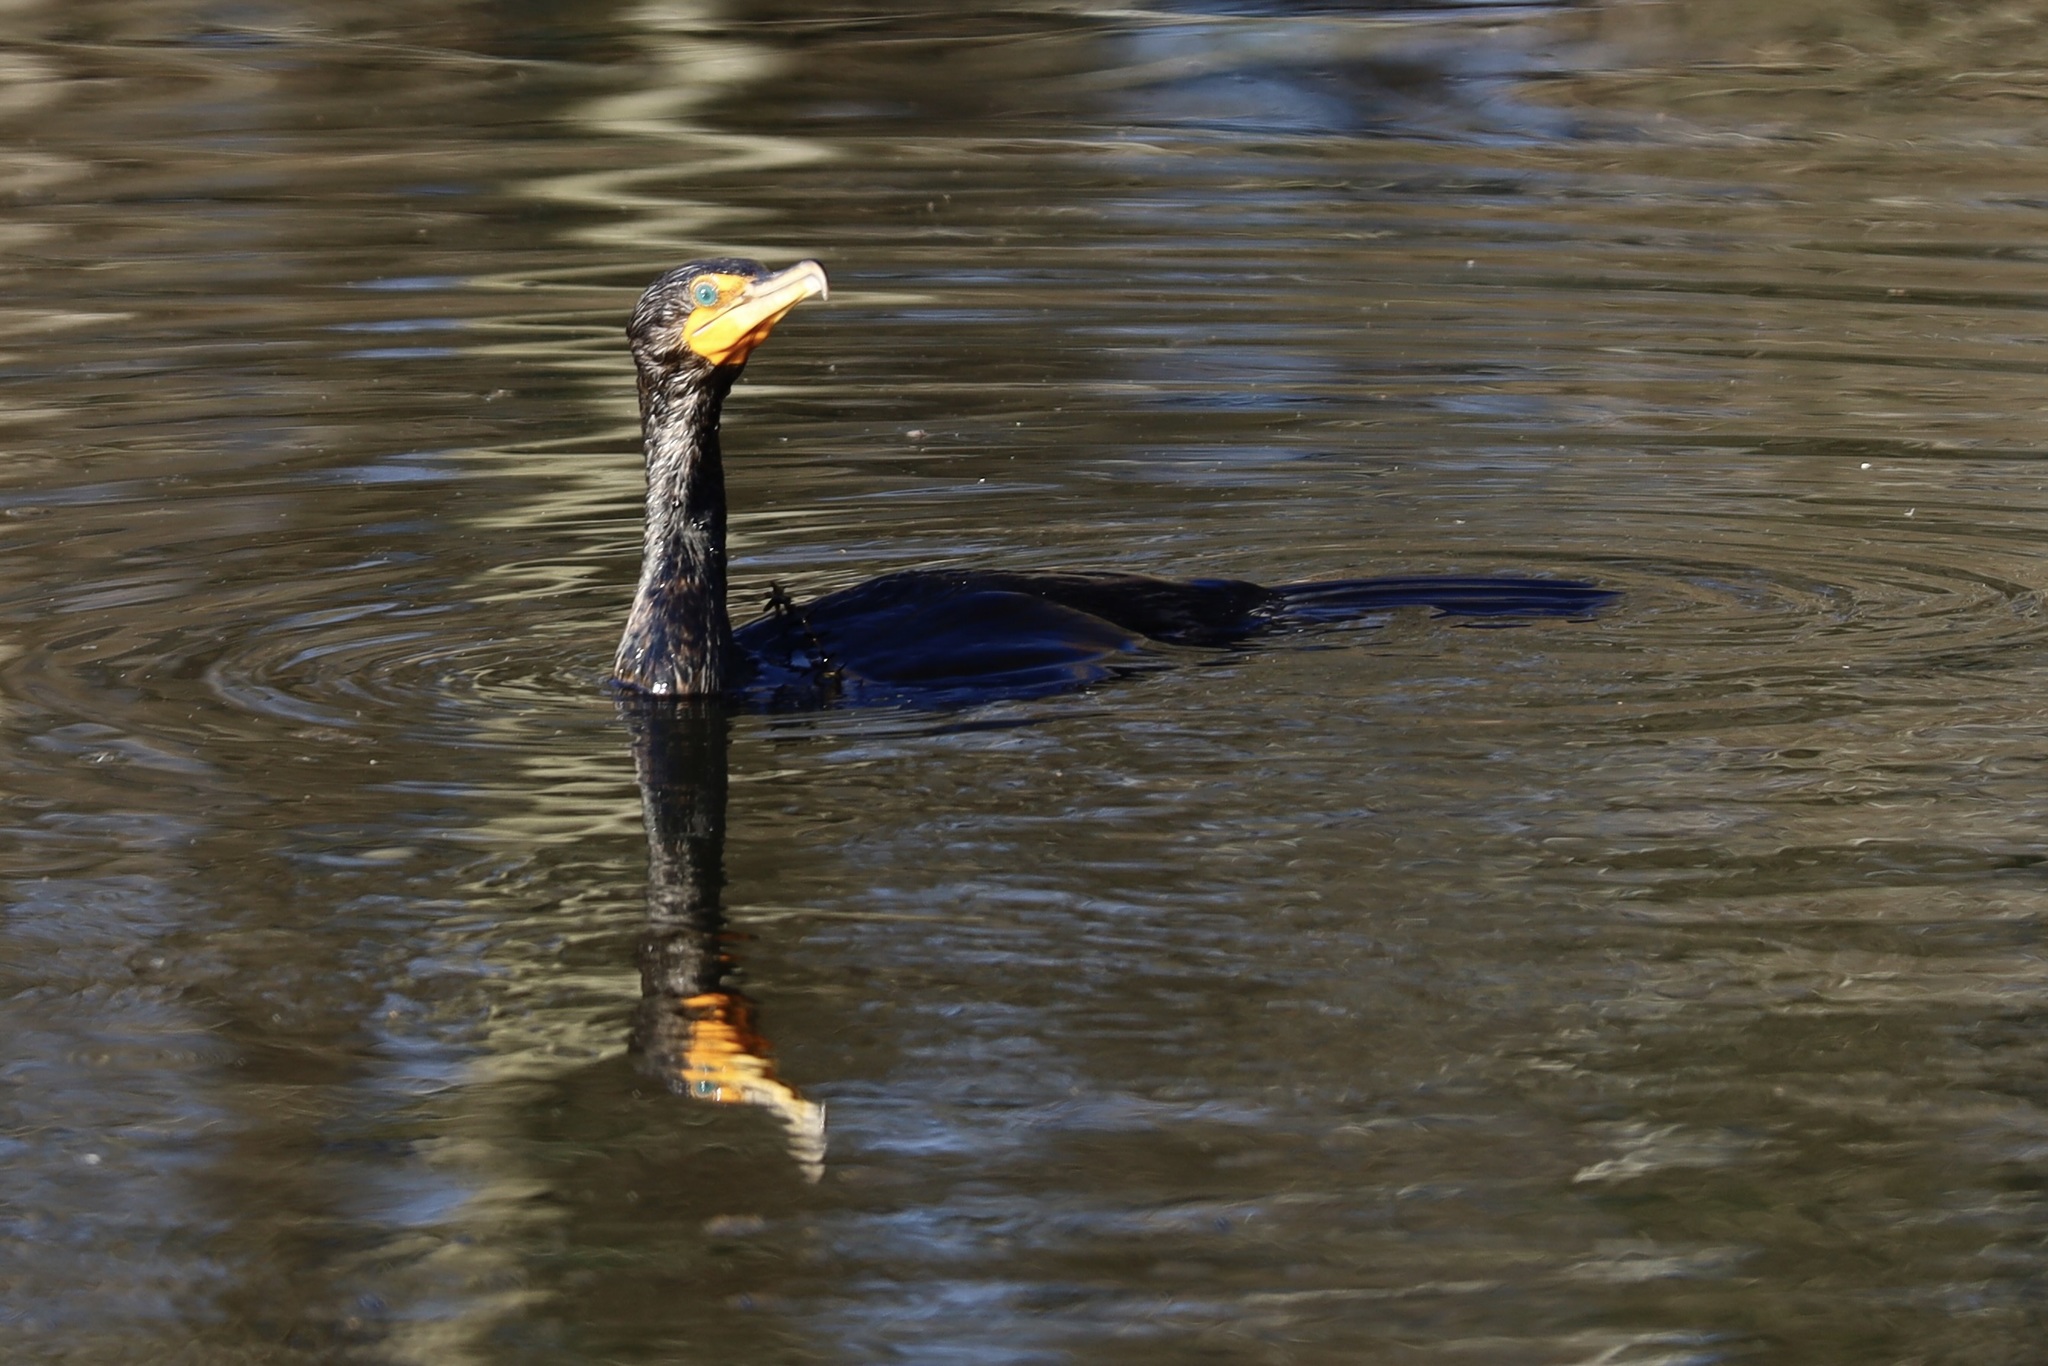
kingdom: Animalia
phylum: Chordata
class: Aves
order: Suliformes
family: Phalacrocoracidae
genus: Phalacrocorax
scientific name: Phalacrocorax auritus
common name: Double-crested cormorant
